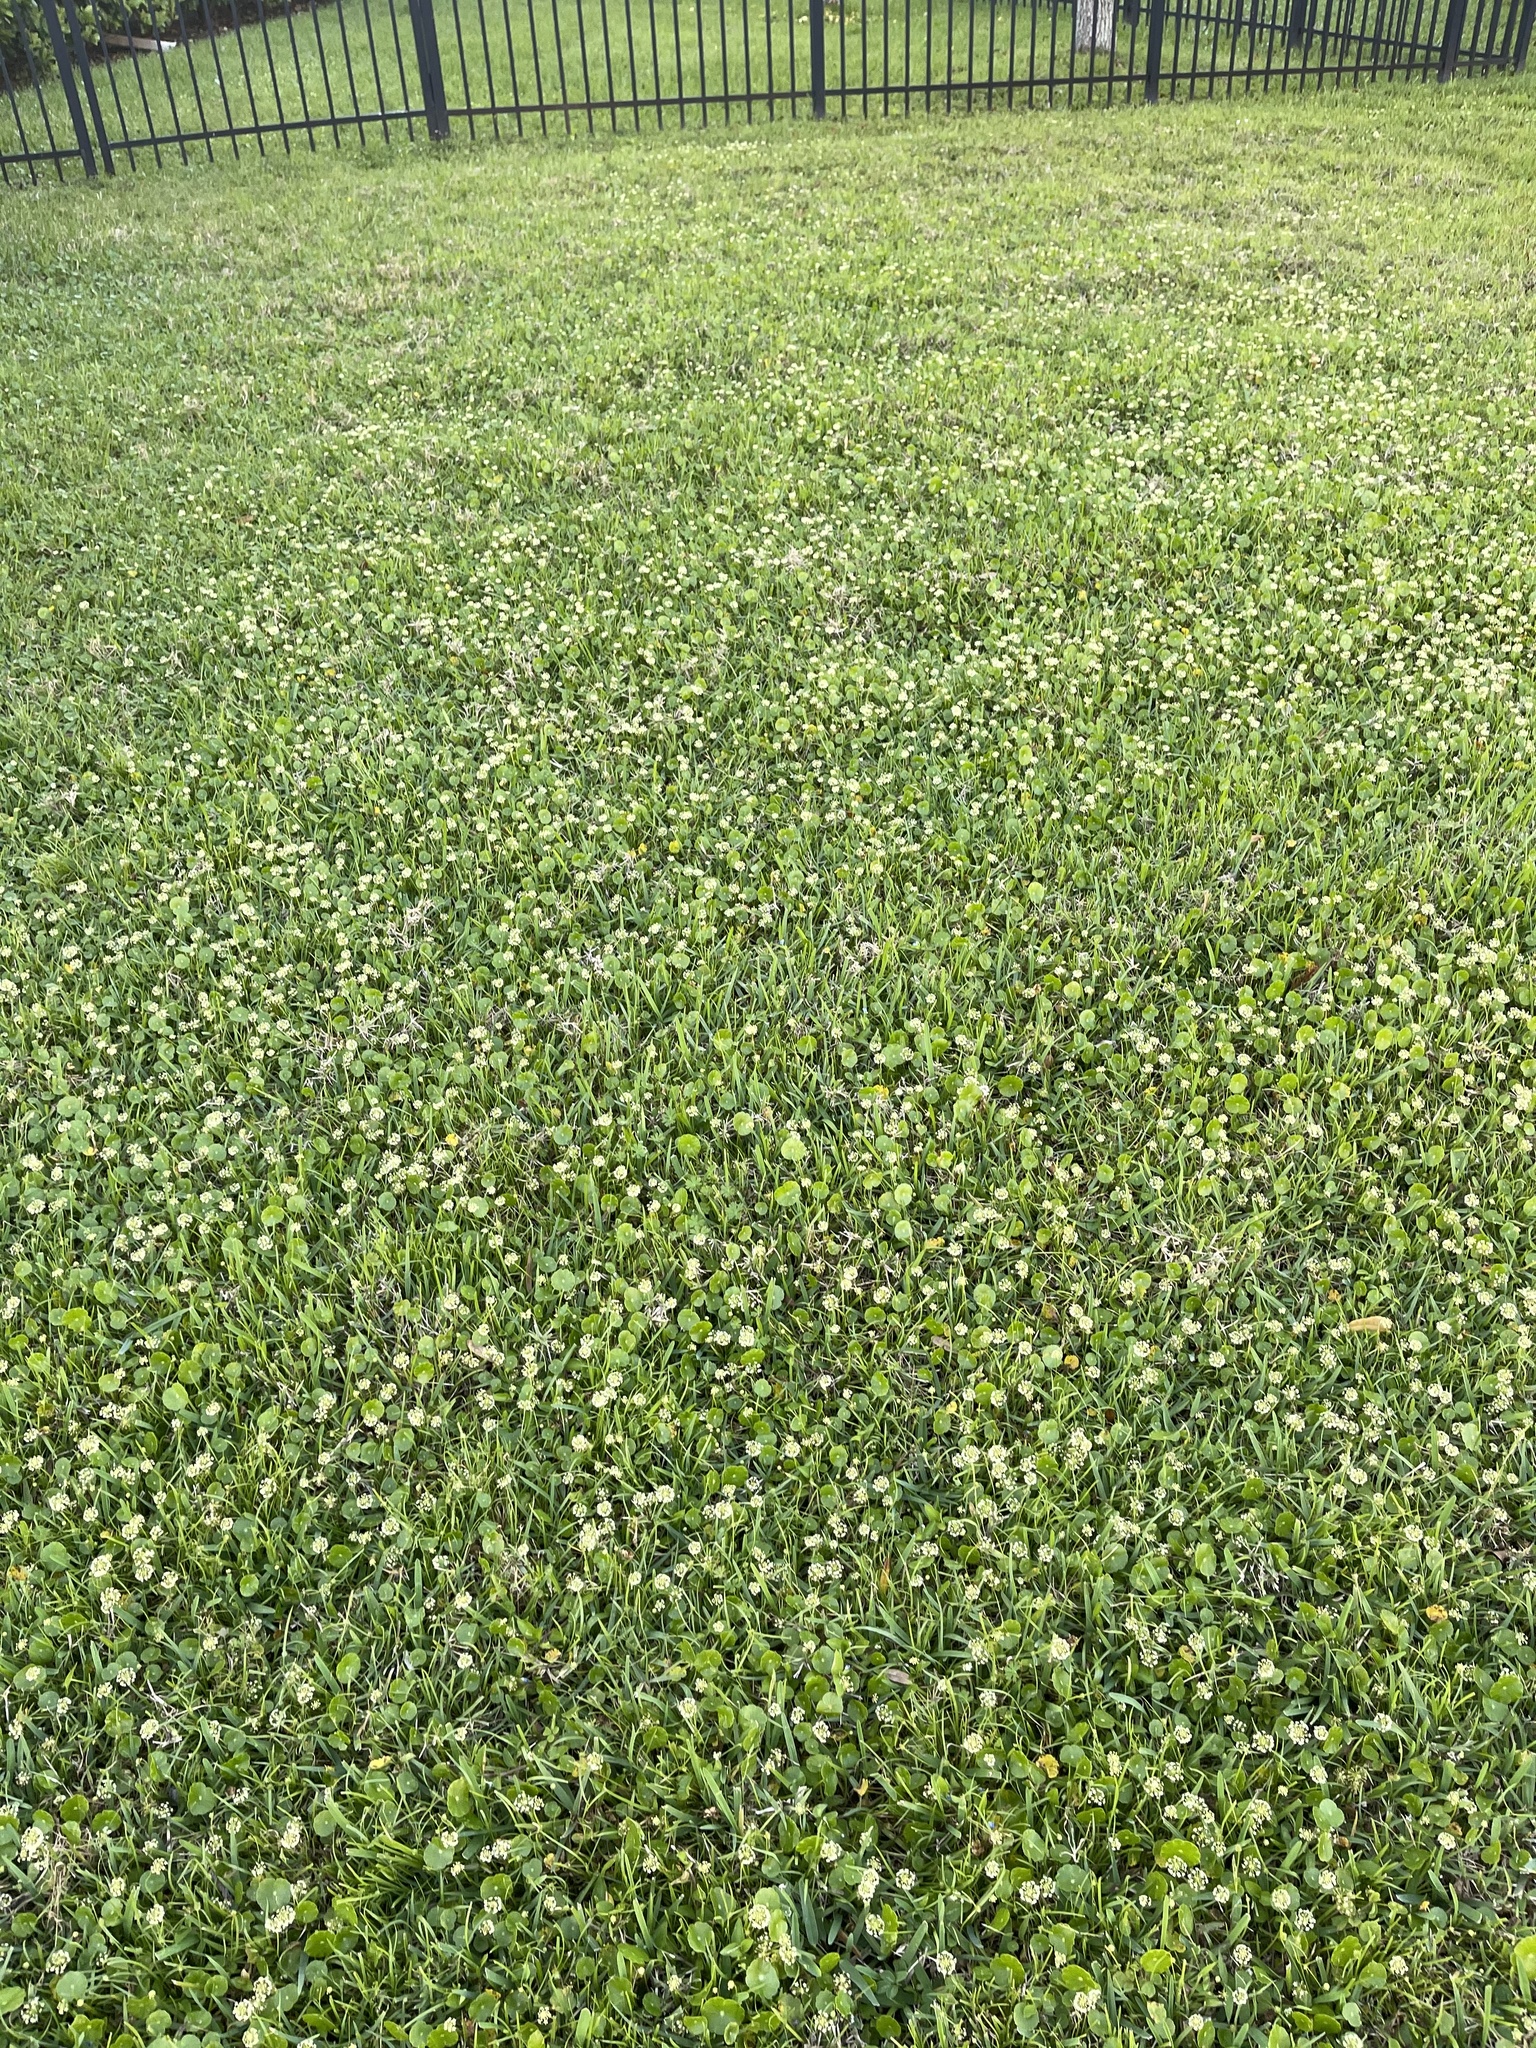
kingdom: Plantae
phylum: Tracheophyta
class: Magnoliopsida
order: Apiales
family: Araliaceae
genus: Hydrocotyle
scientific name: Hydrocotyle umbellata
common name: Water pennywort
